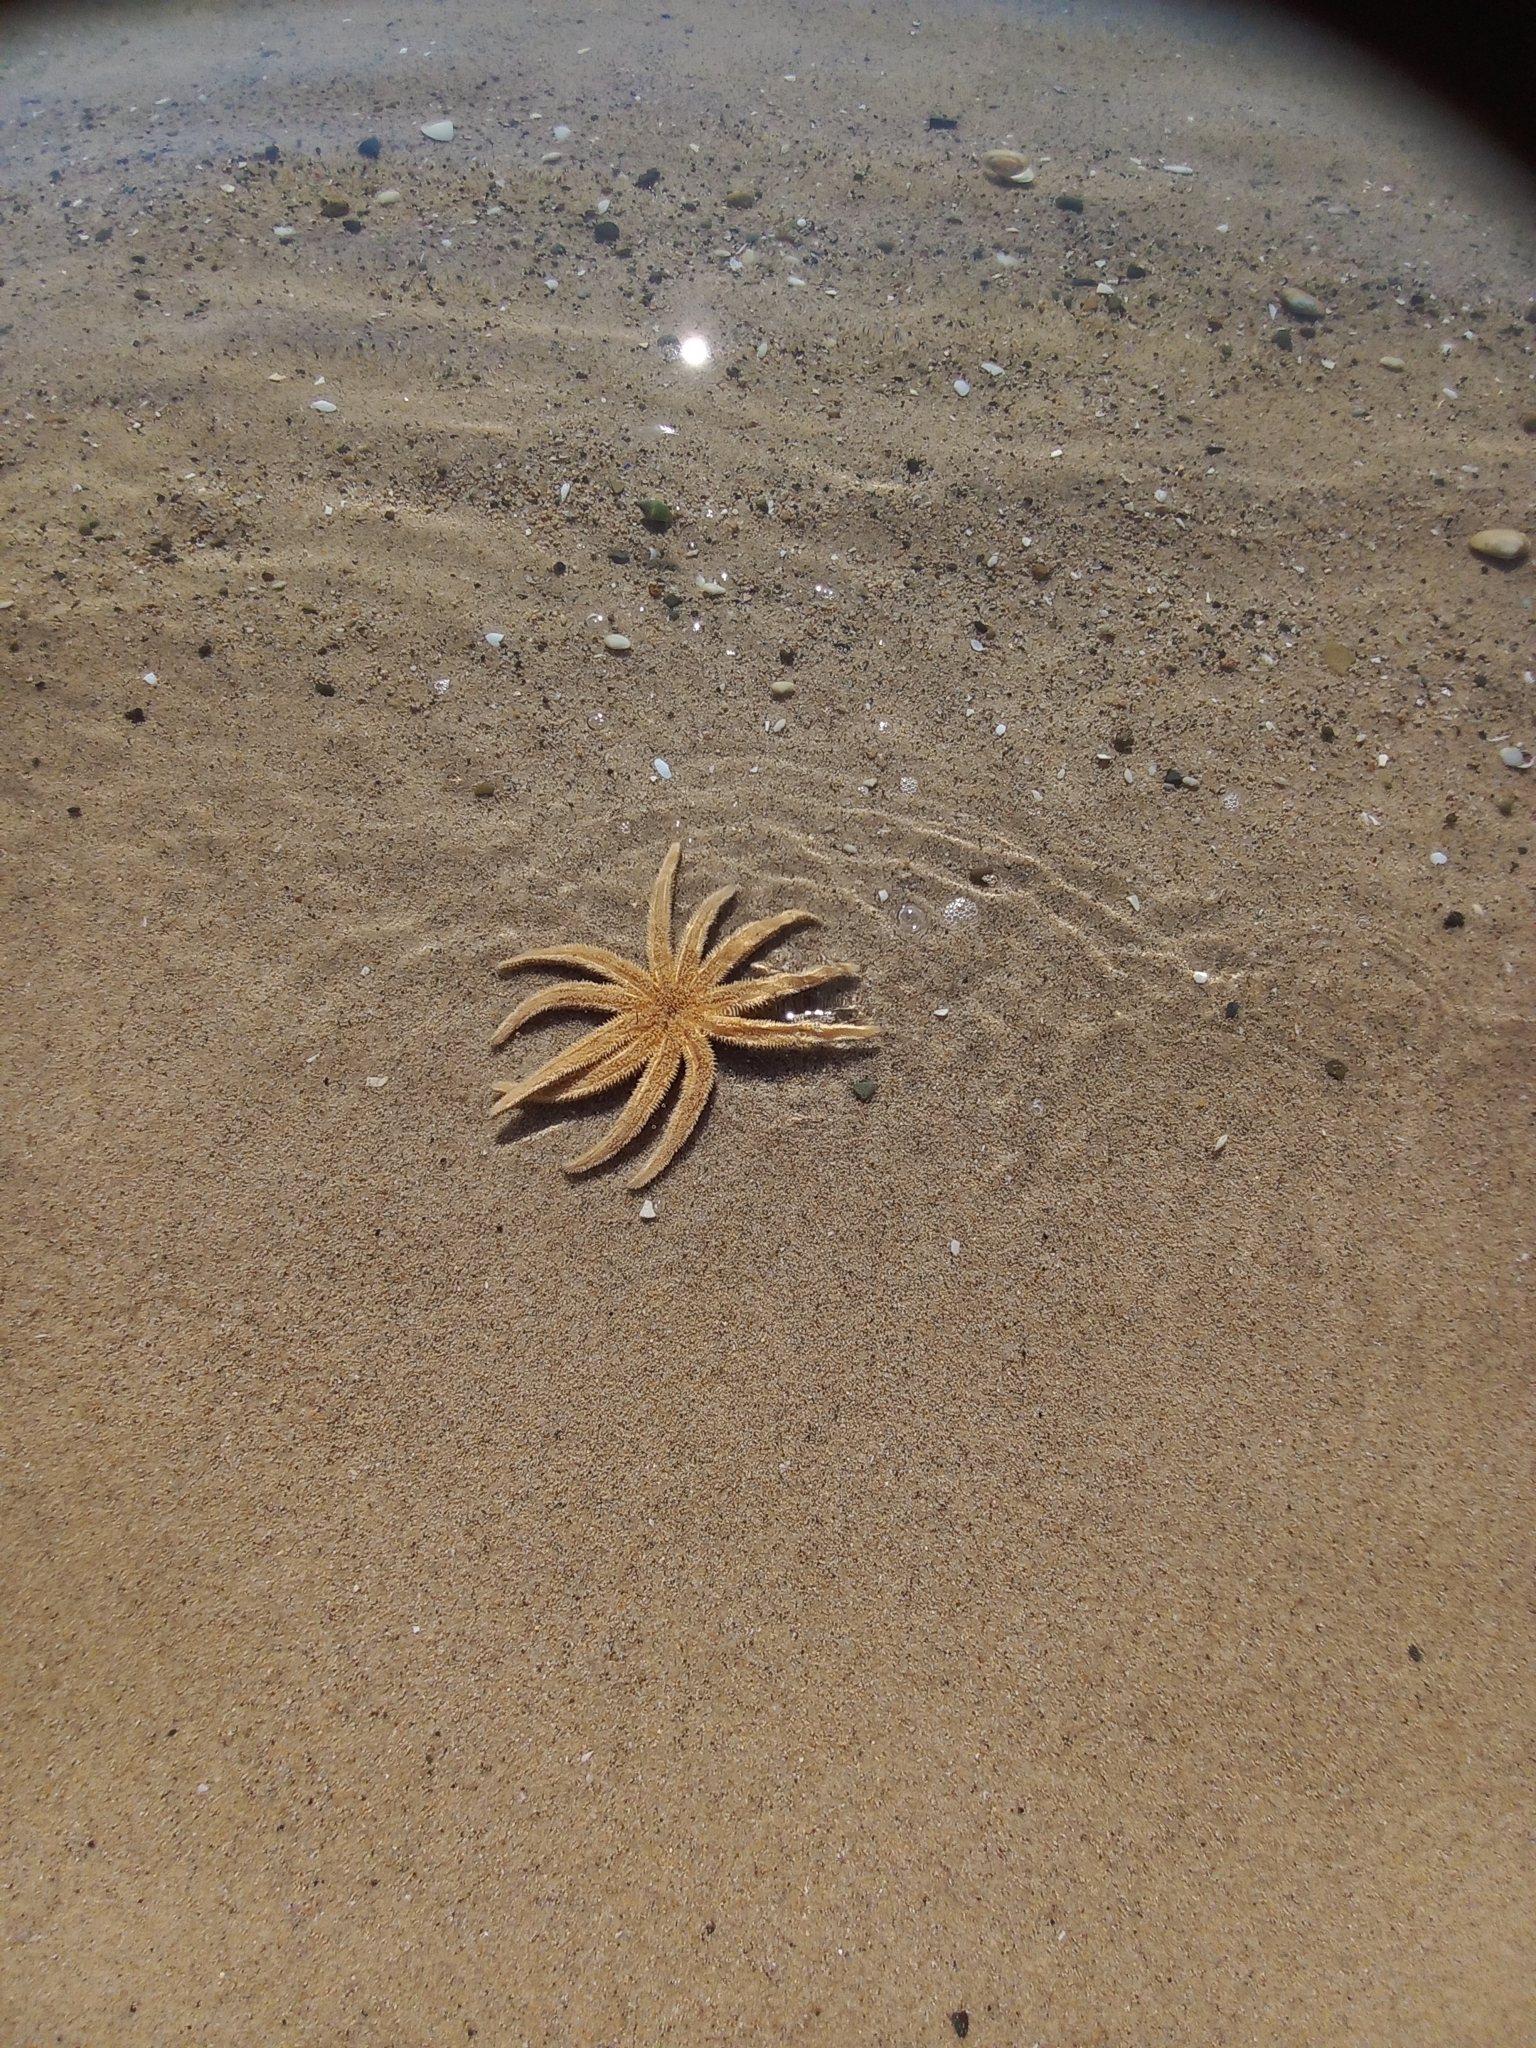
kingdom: Animalia
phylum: Echinodermata
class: Asteroidea
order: Forcipulatida
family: Asteriidae
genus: Coscinasterias
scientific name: Coscinasterias muricata
